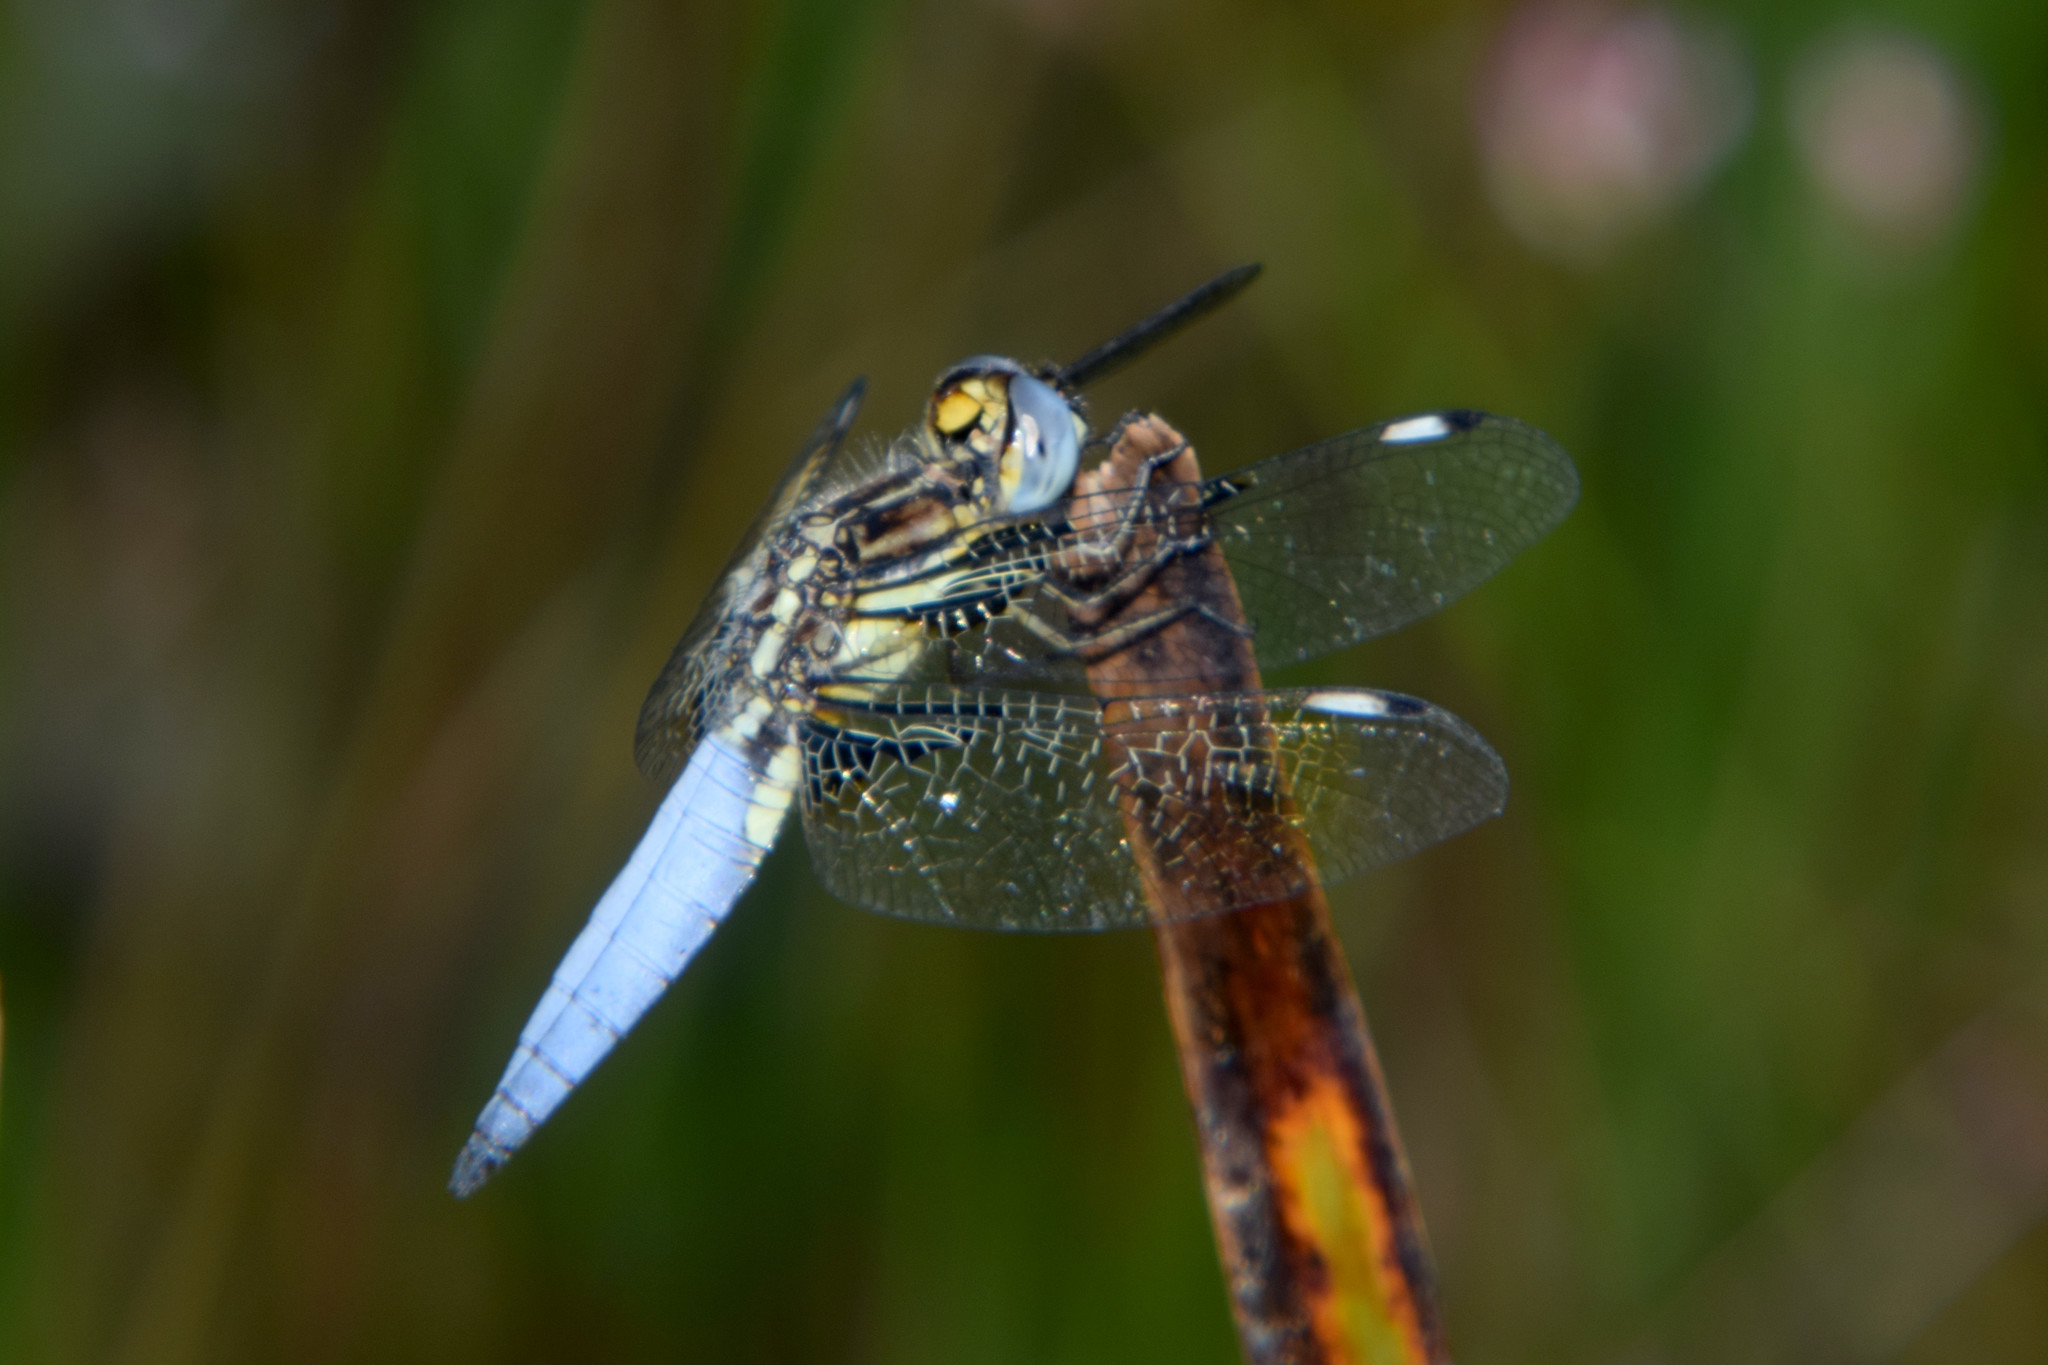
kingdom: Animalia
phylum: Arthropoda
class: Insecta
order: Odonata
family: Libellulidae
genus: Palpopleura
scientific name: Palpopleura sexmaculata
